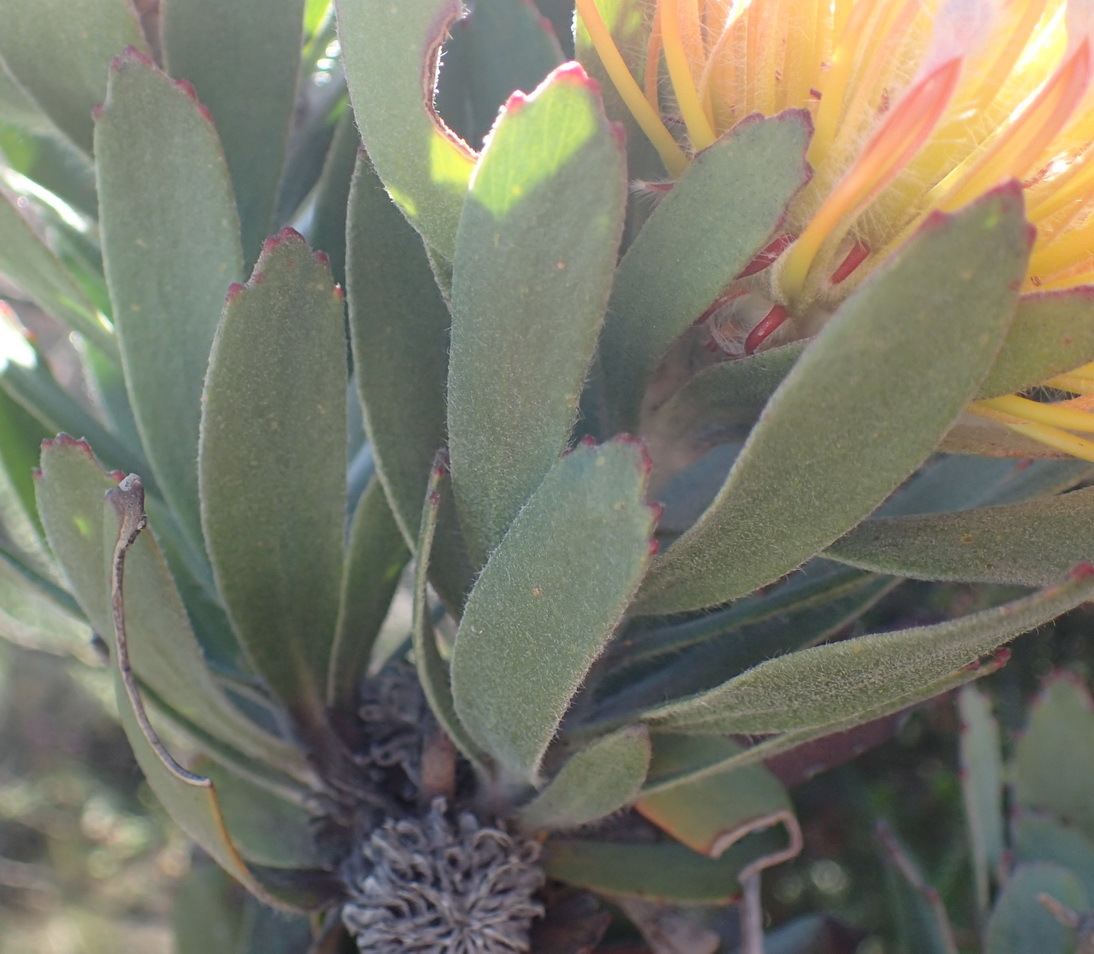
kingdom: Plantae
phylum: Tracheophyta
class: Magnoliopsida
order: Proteales
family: Proteaceae
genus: Leucospermum
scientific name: Leucospermum pluridens
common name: Robinson pincushion
